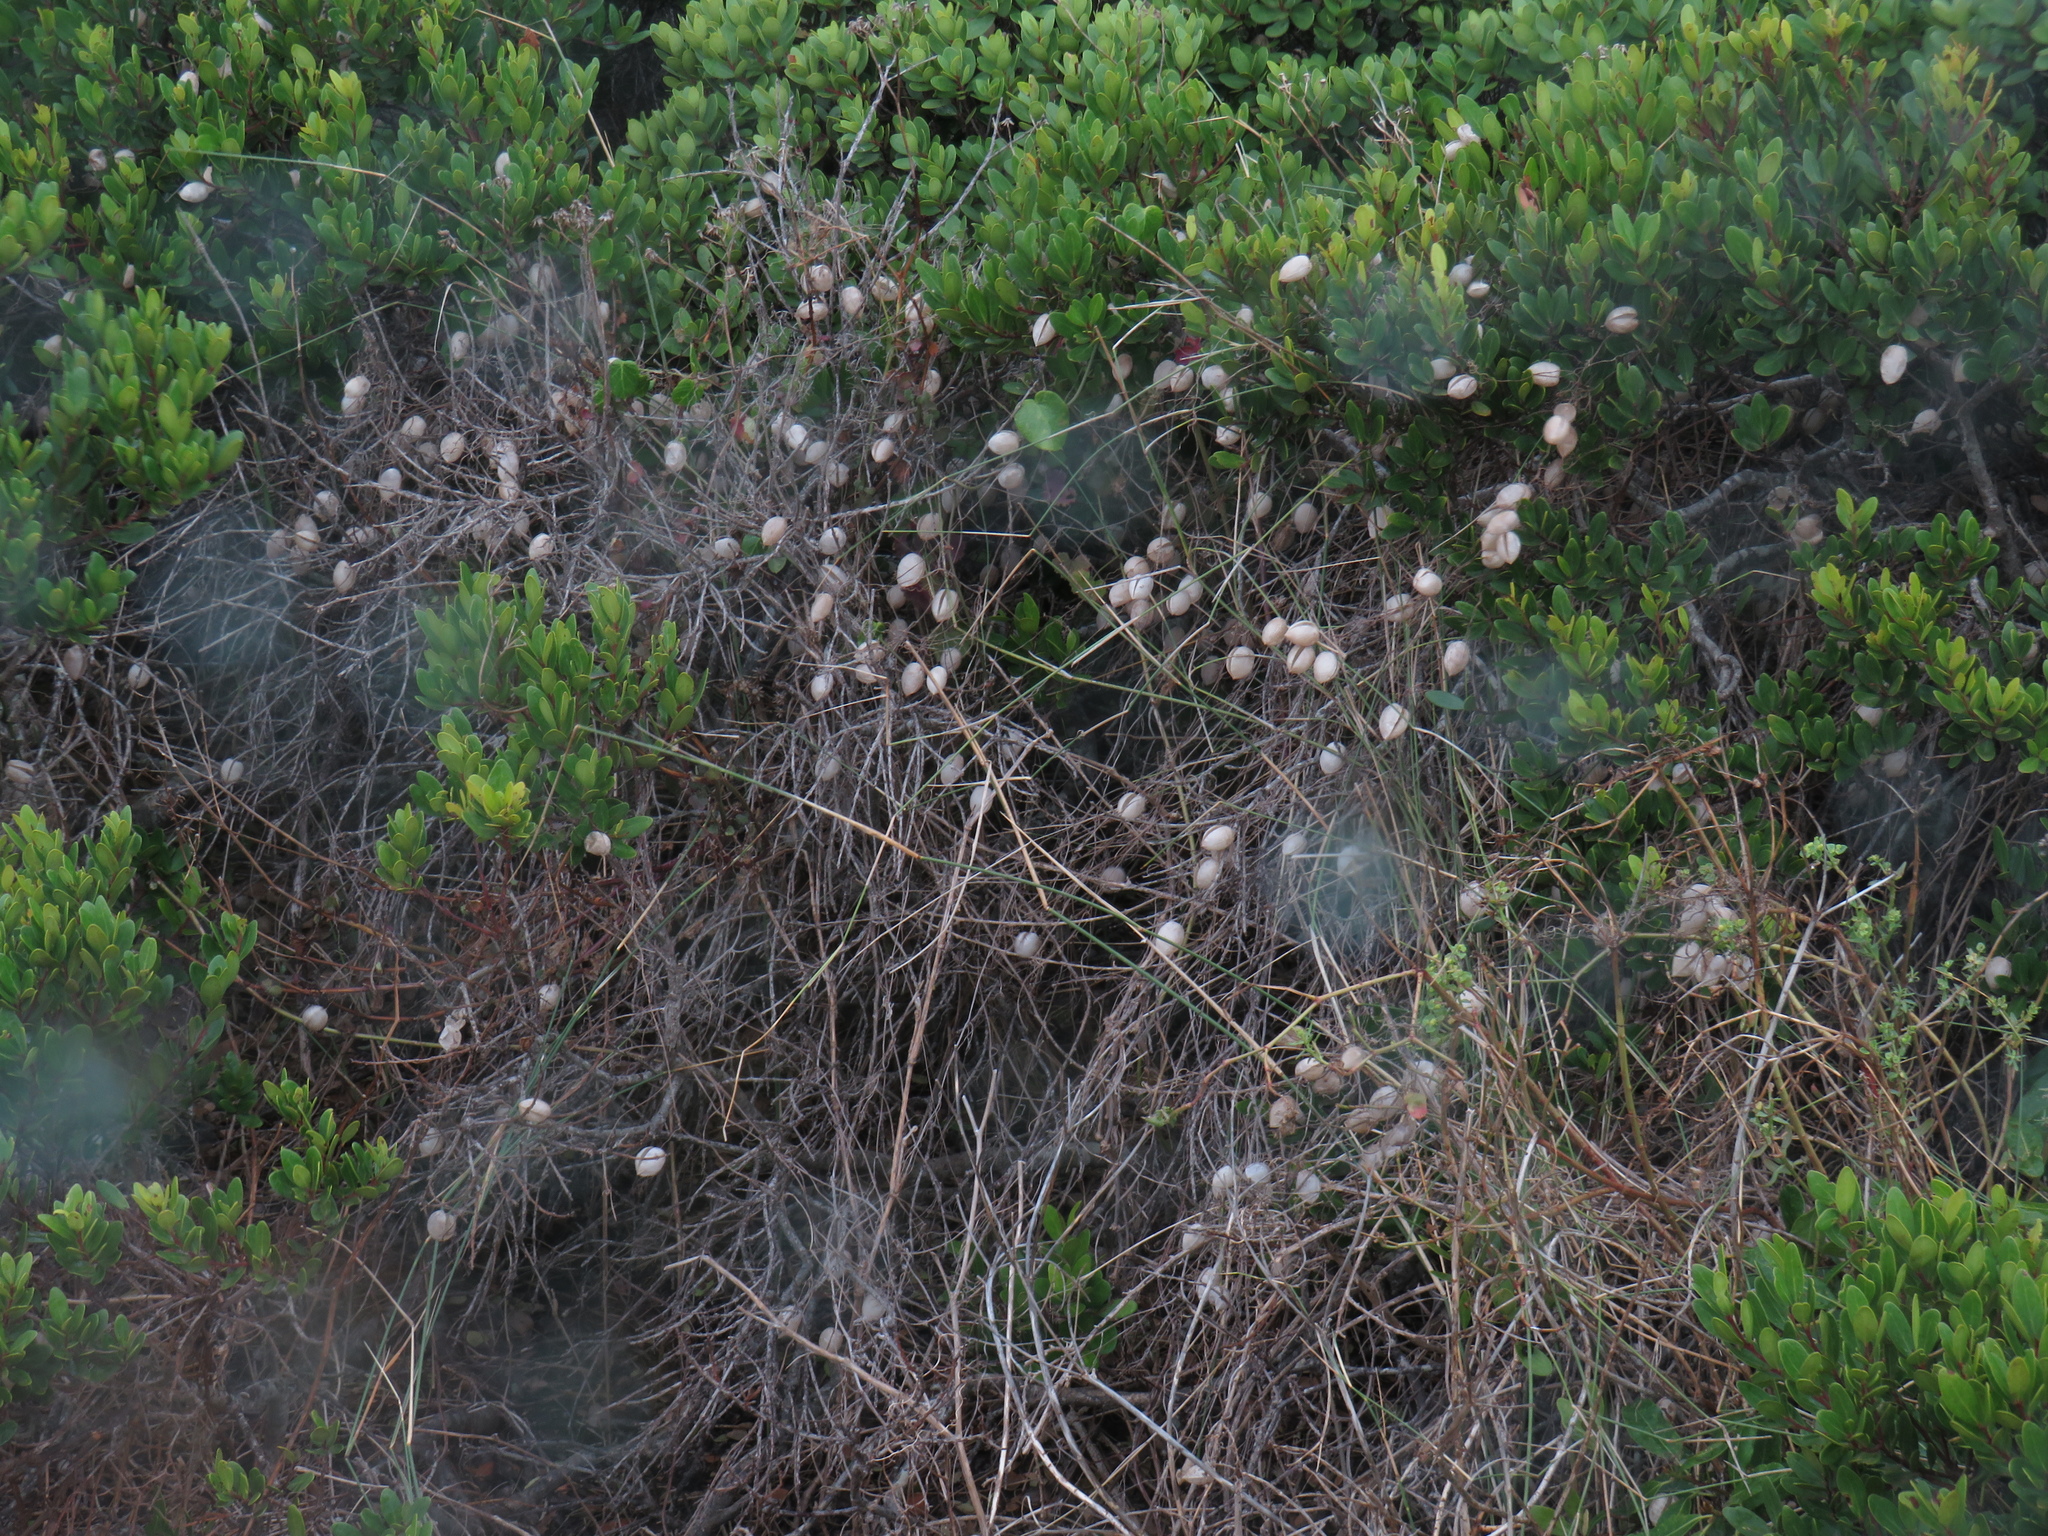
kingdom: Plantae
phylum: Tracheophyta
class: Magnoliopsida
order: Ranunculales
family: Papaveraceae
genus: Cysticapnos
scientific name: Cysticapnos vesicaria
